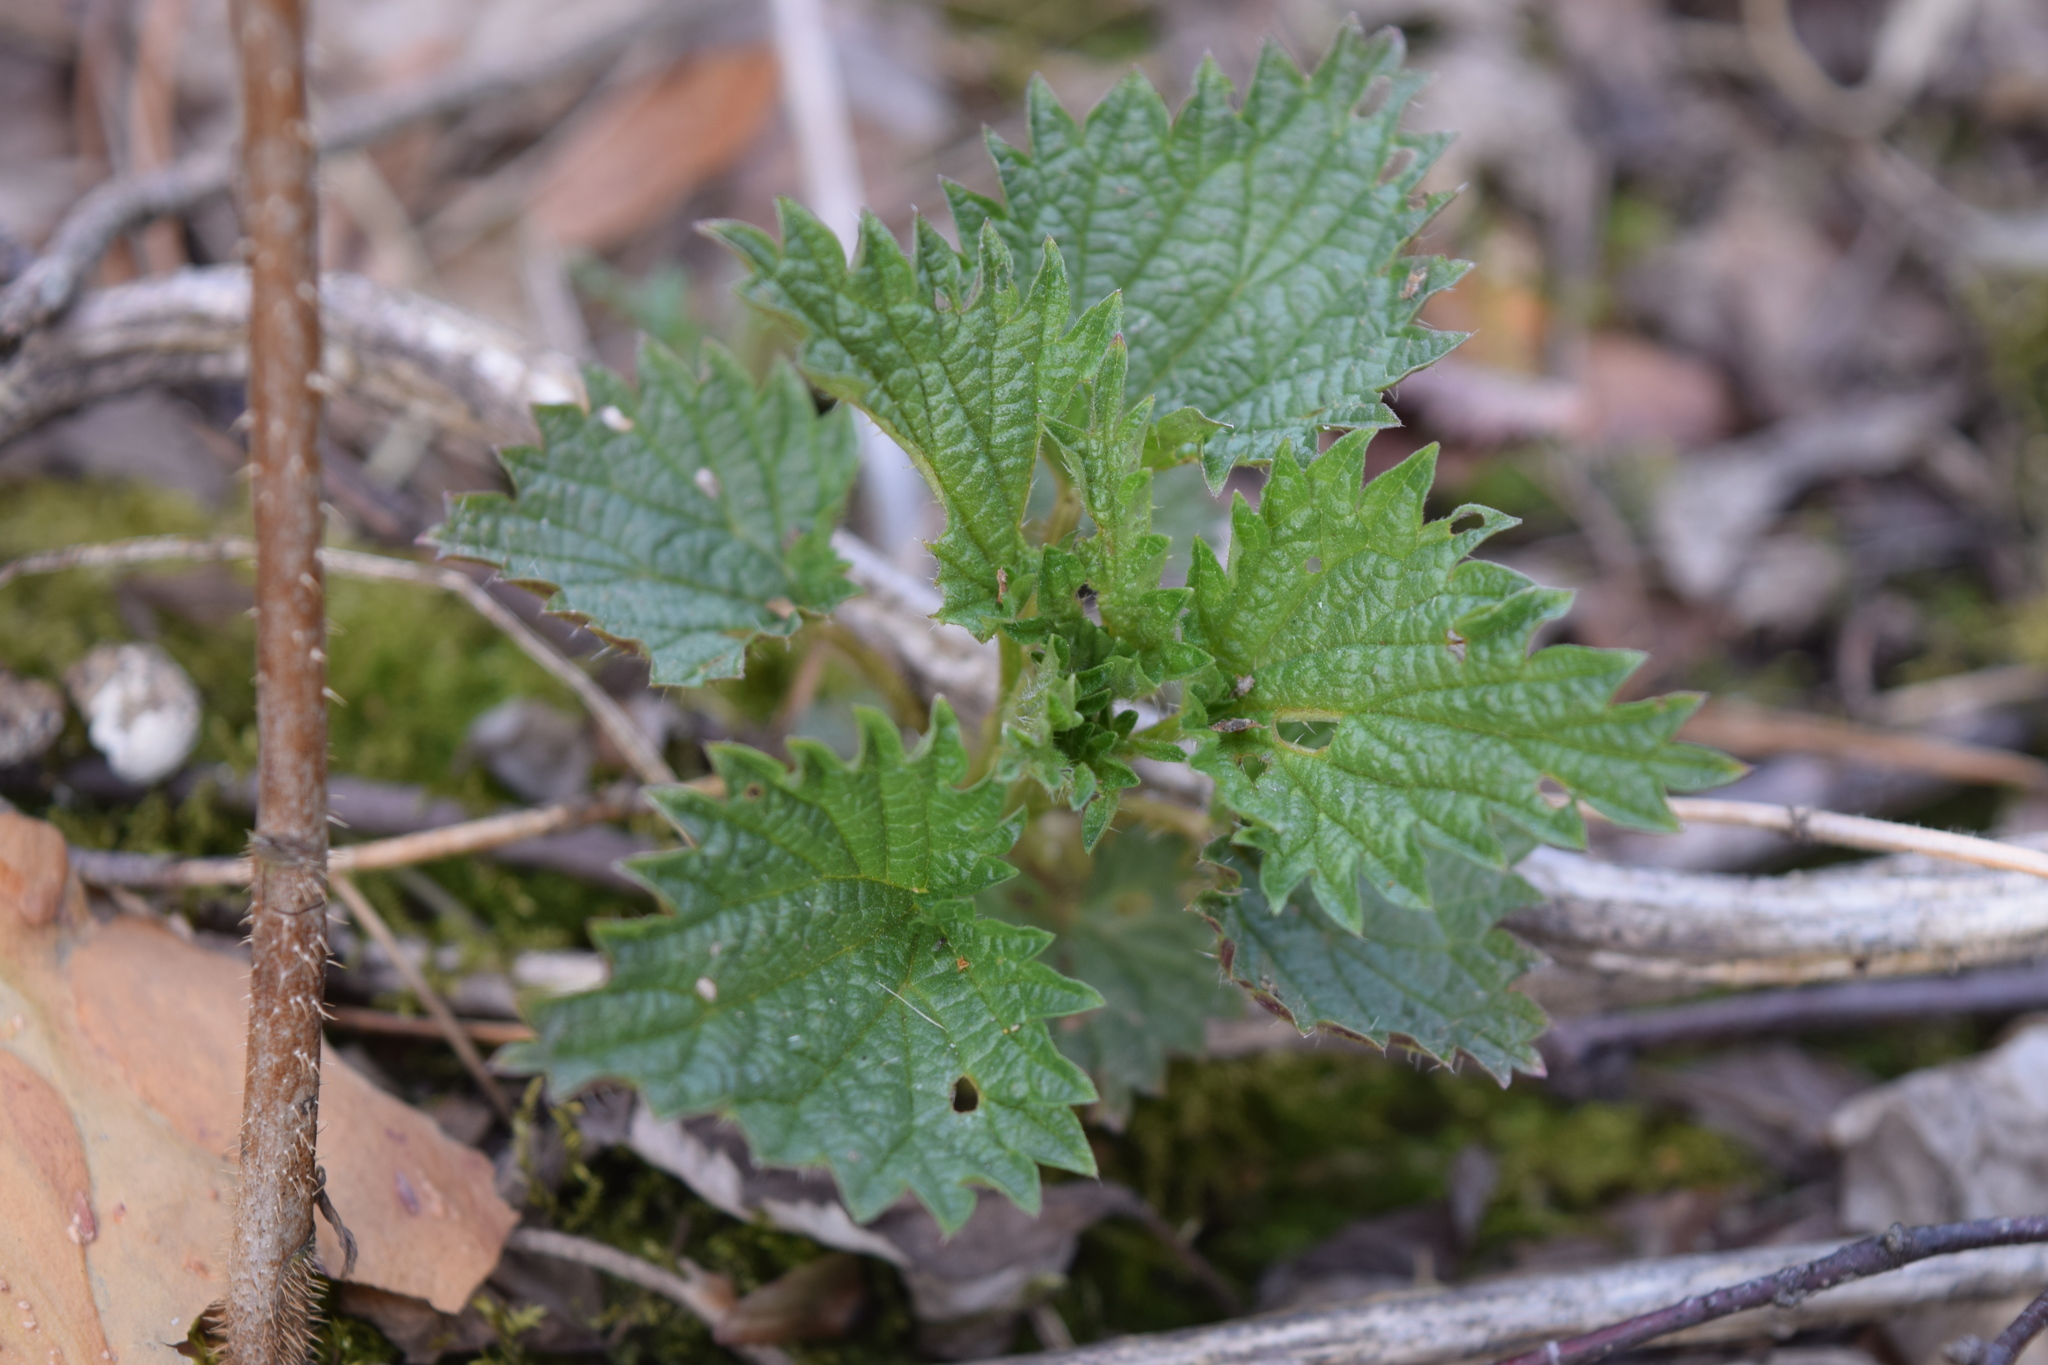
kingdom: Plantae
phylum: Tracheophyta
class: Magnoliopsida
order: Rosales
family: Urticaceae
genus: Urtica
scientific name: Urtica dioica
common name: Common nettle
